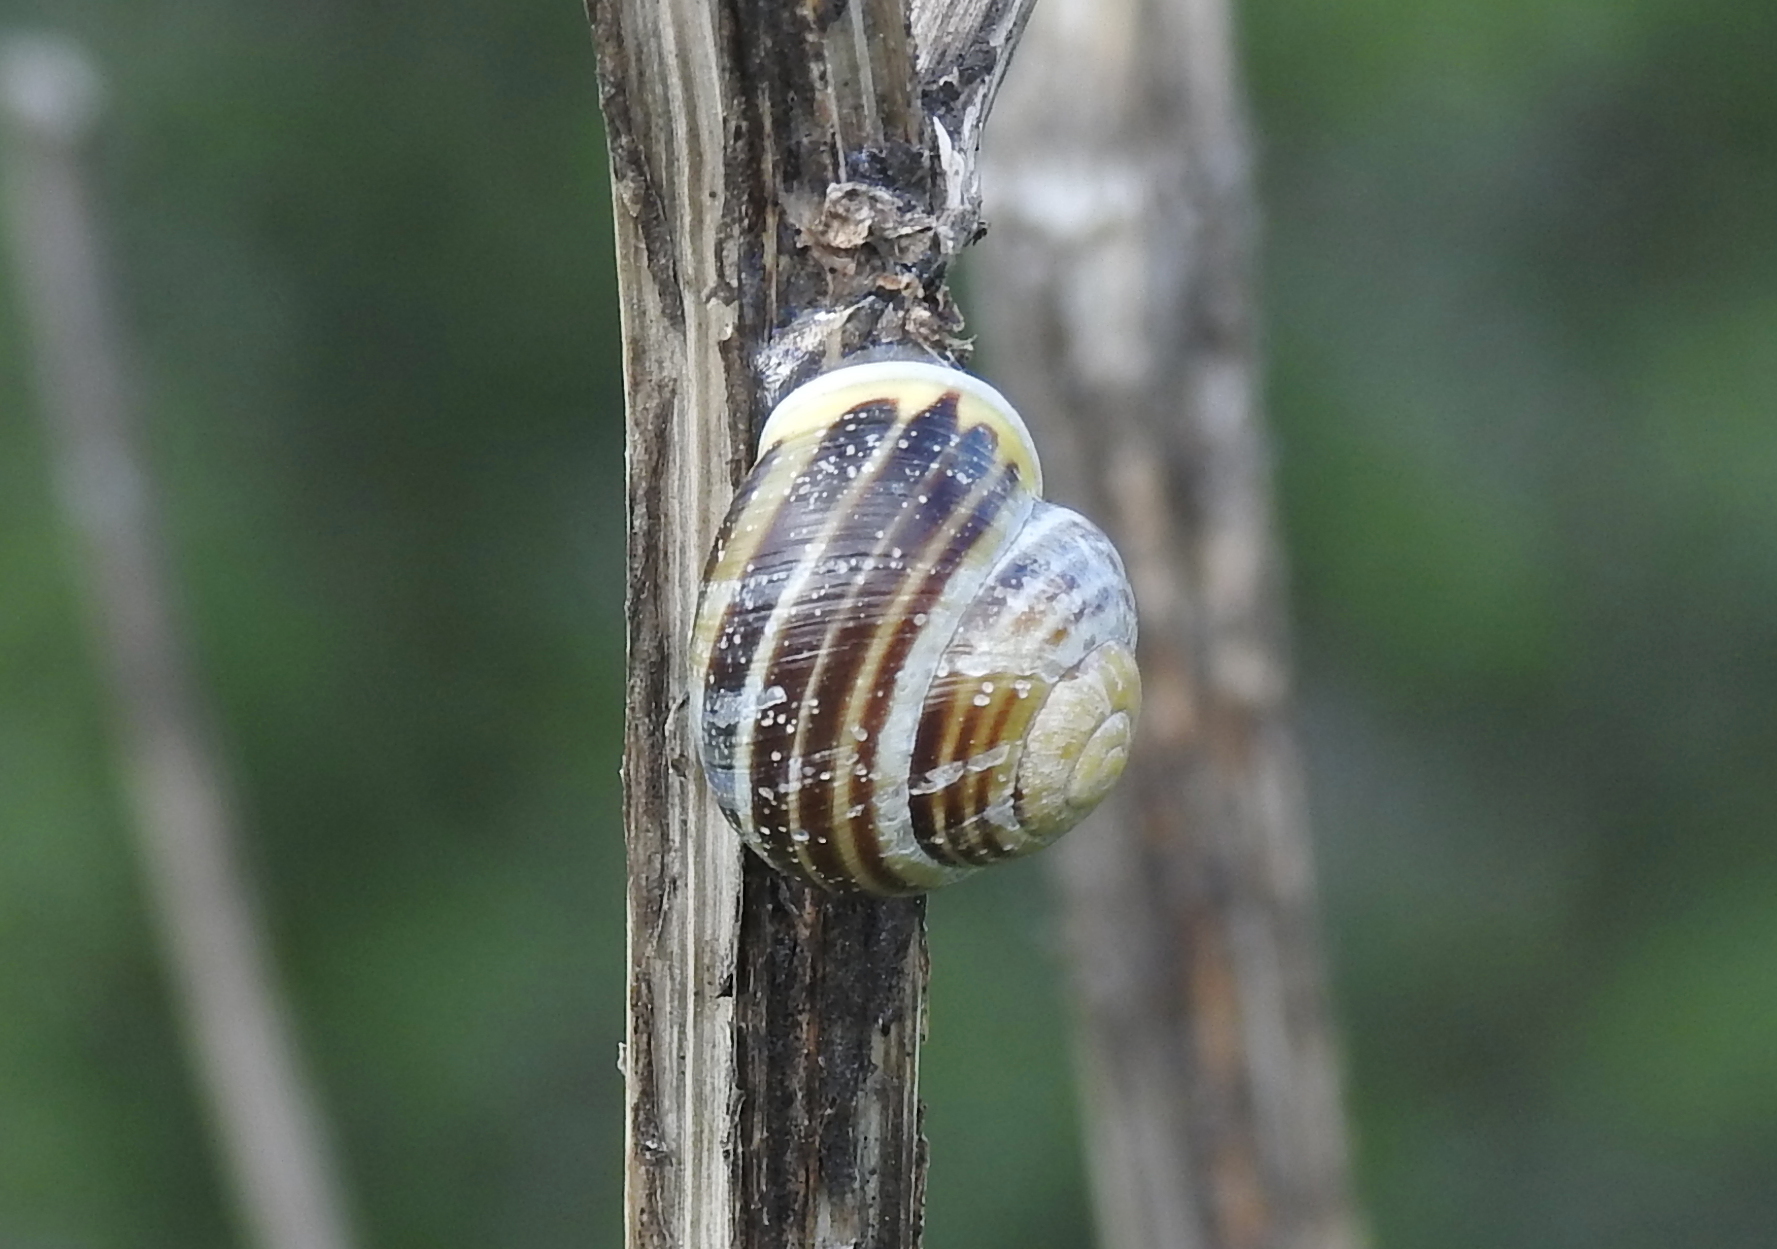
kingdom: Animalia
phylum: Mollusca
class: Gastropoda
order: Stylommatophora
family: Helicidae
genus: Cepaea
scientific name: Cepaea hortensis
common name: White-lip gardensnail
